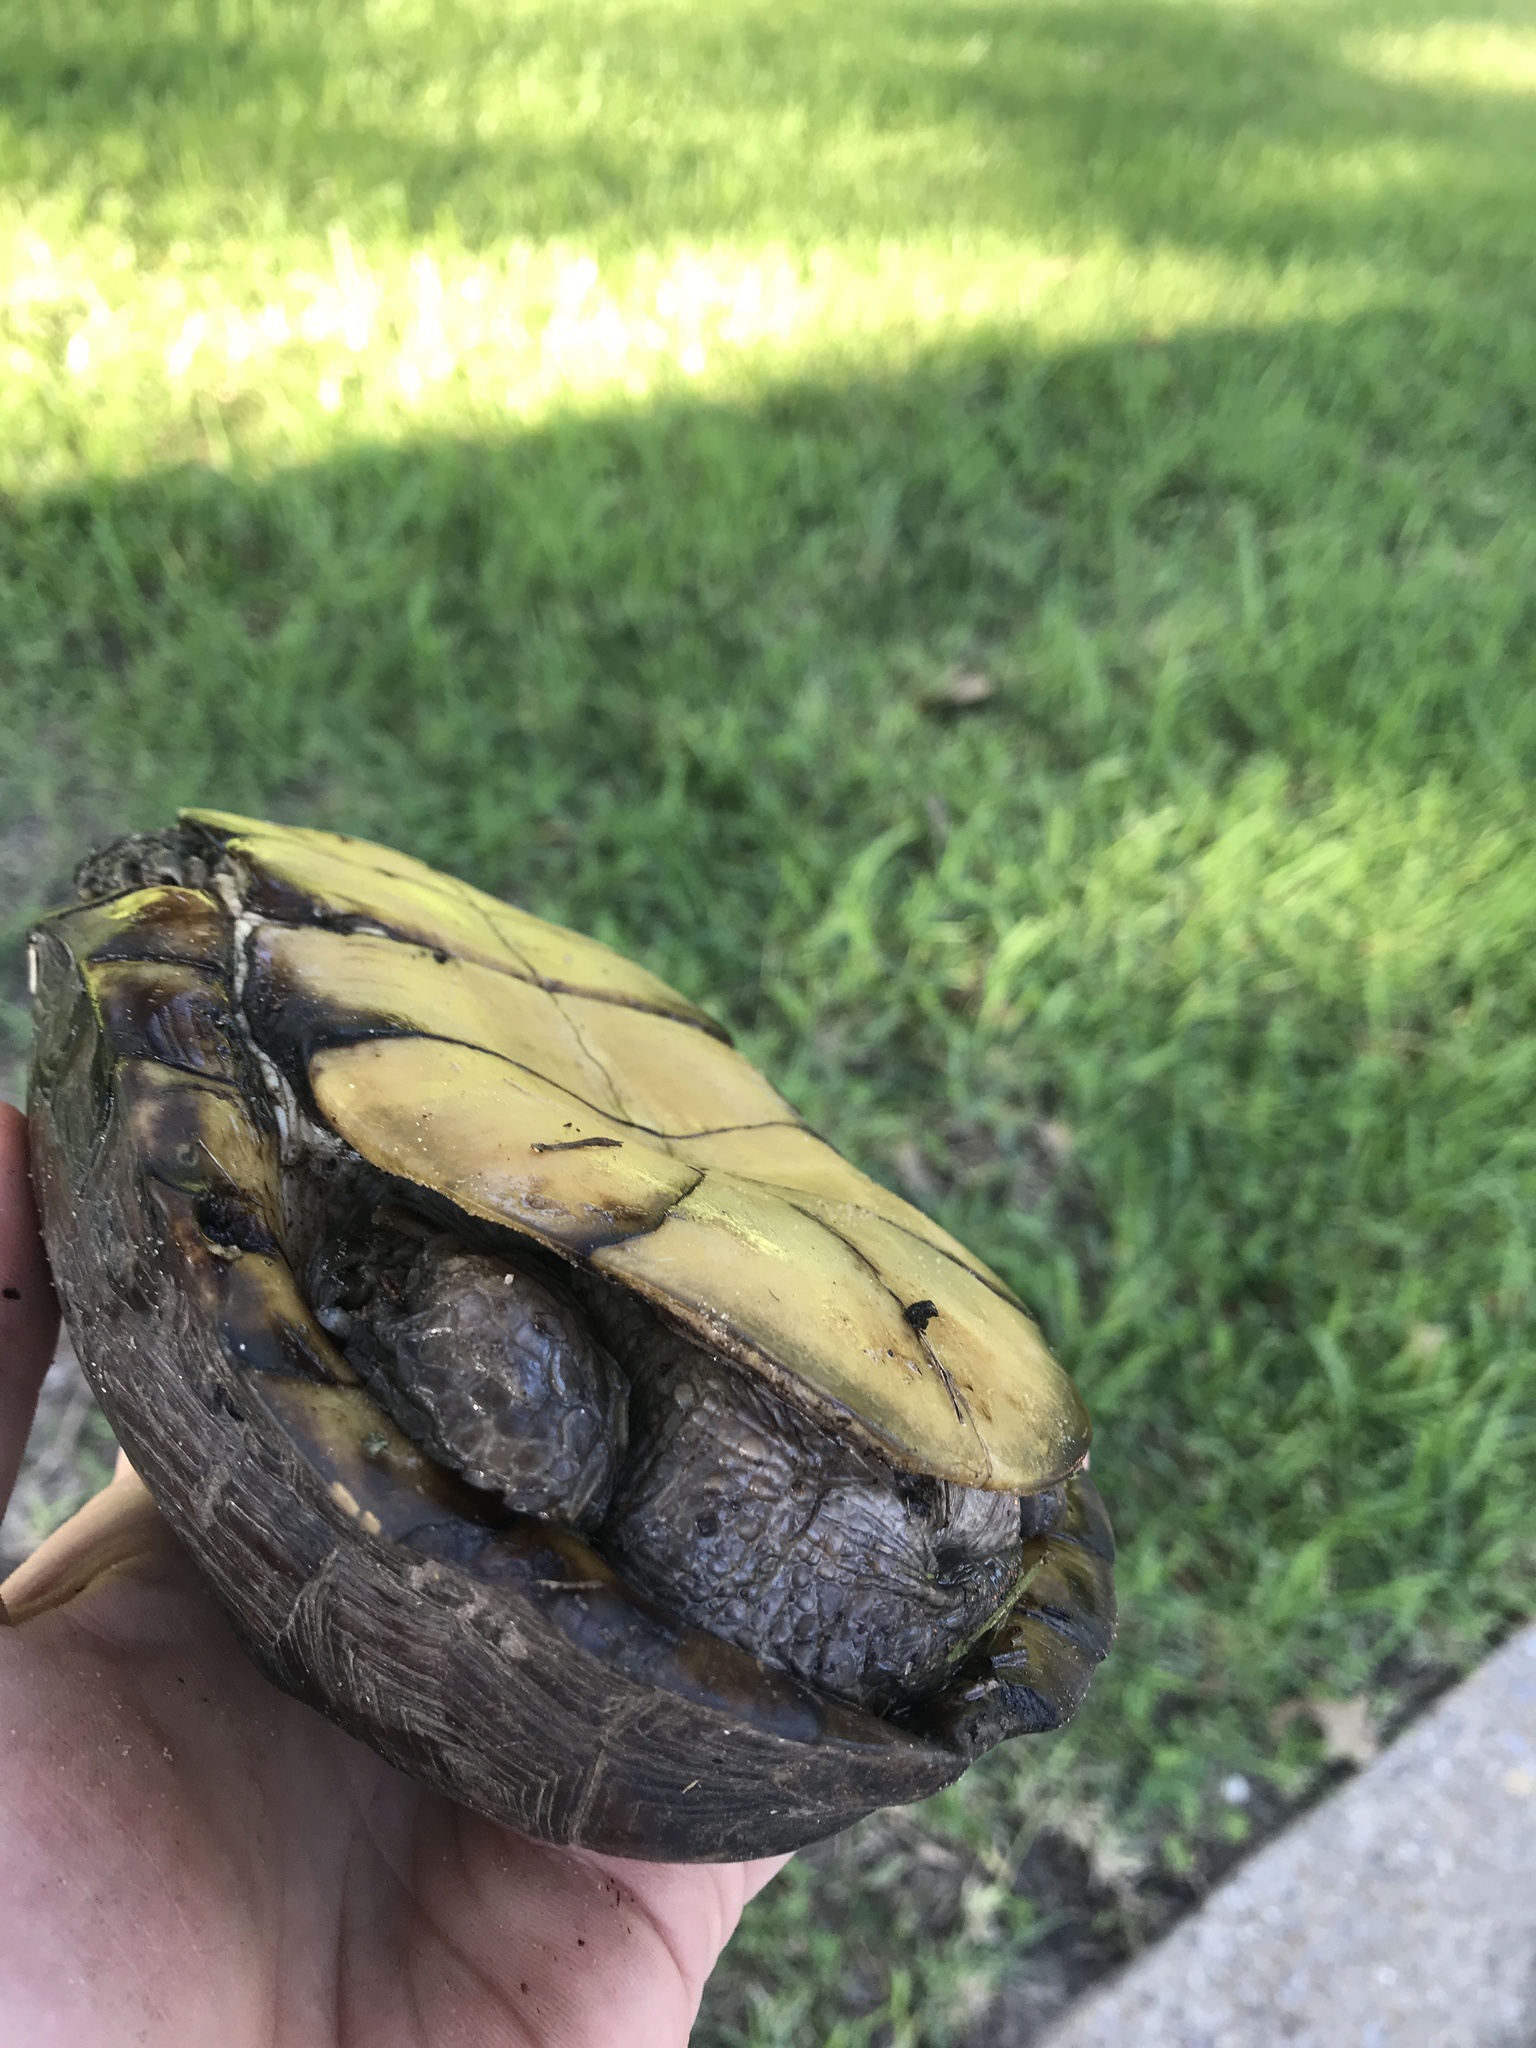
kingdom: Animalia
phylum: Chordata
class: Testudines
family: Emydidae
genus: Terrapene
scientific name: Terrapene carolina
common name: Common box turtle
